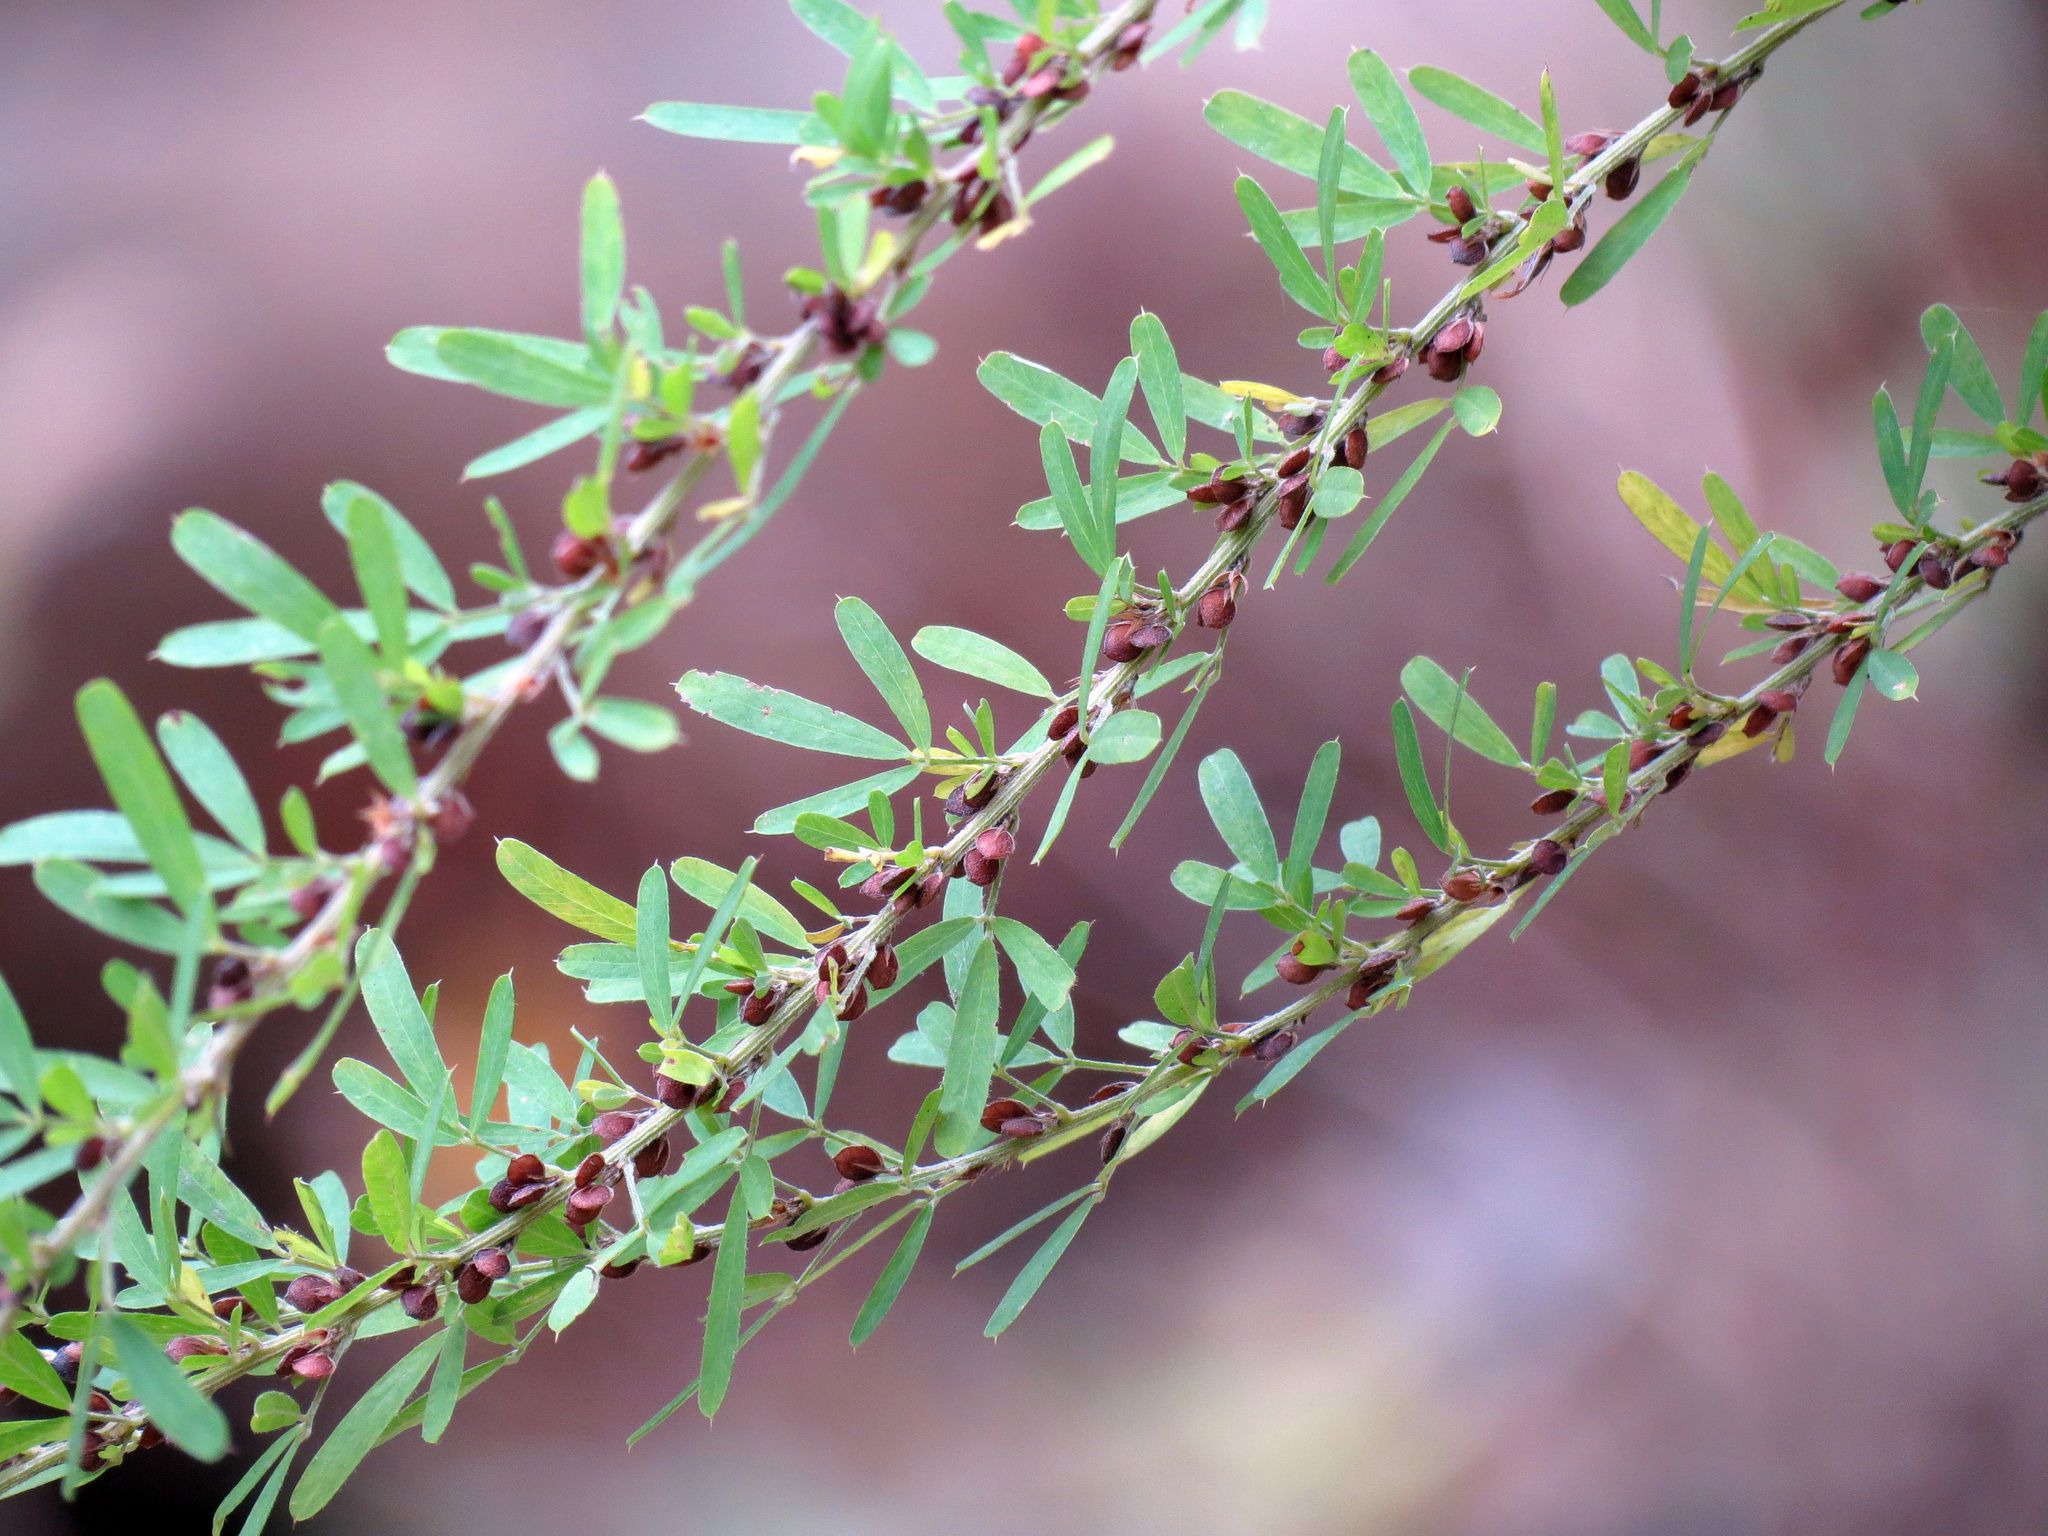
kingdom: Plantae
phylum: Tracheophyta
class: Magnoliopsida
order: Fabales
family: Fabaceae
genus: Lespedeza
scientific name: Lespedeza cuneata
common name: Chinese bush-clover
